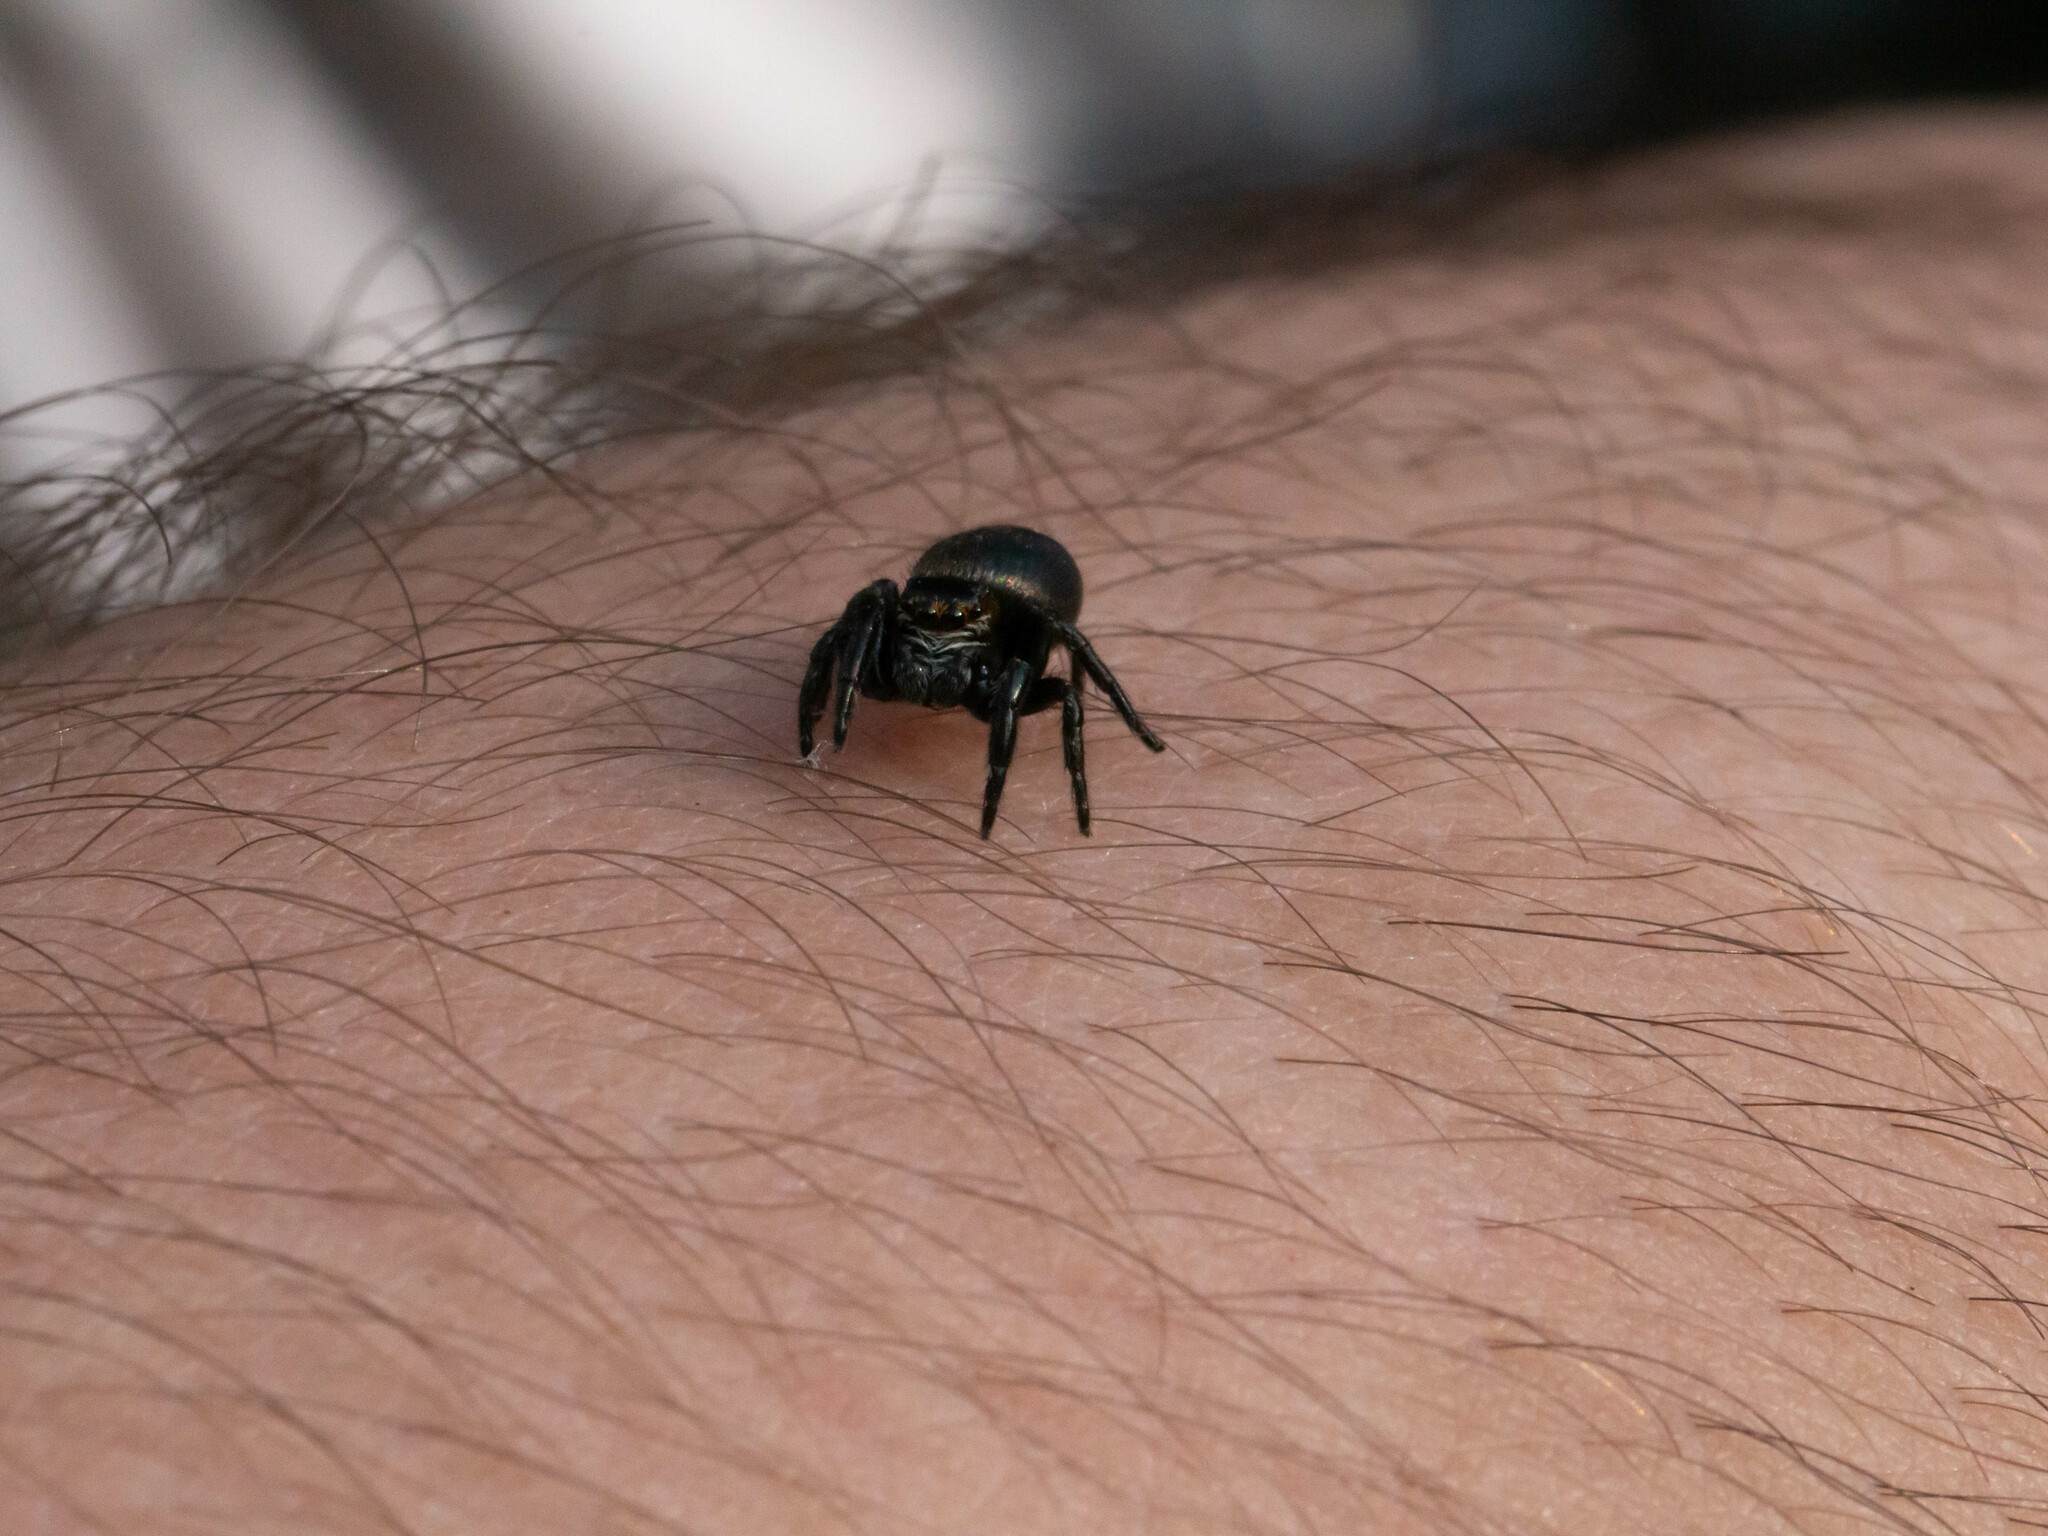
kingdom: Animalia
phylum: Arthropoda
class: Arachnida
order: Araneae
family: Salticidae
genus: Evarcha
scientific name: Evarcha arcuata
